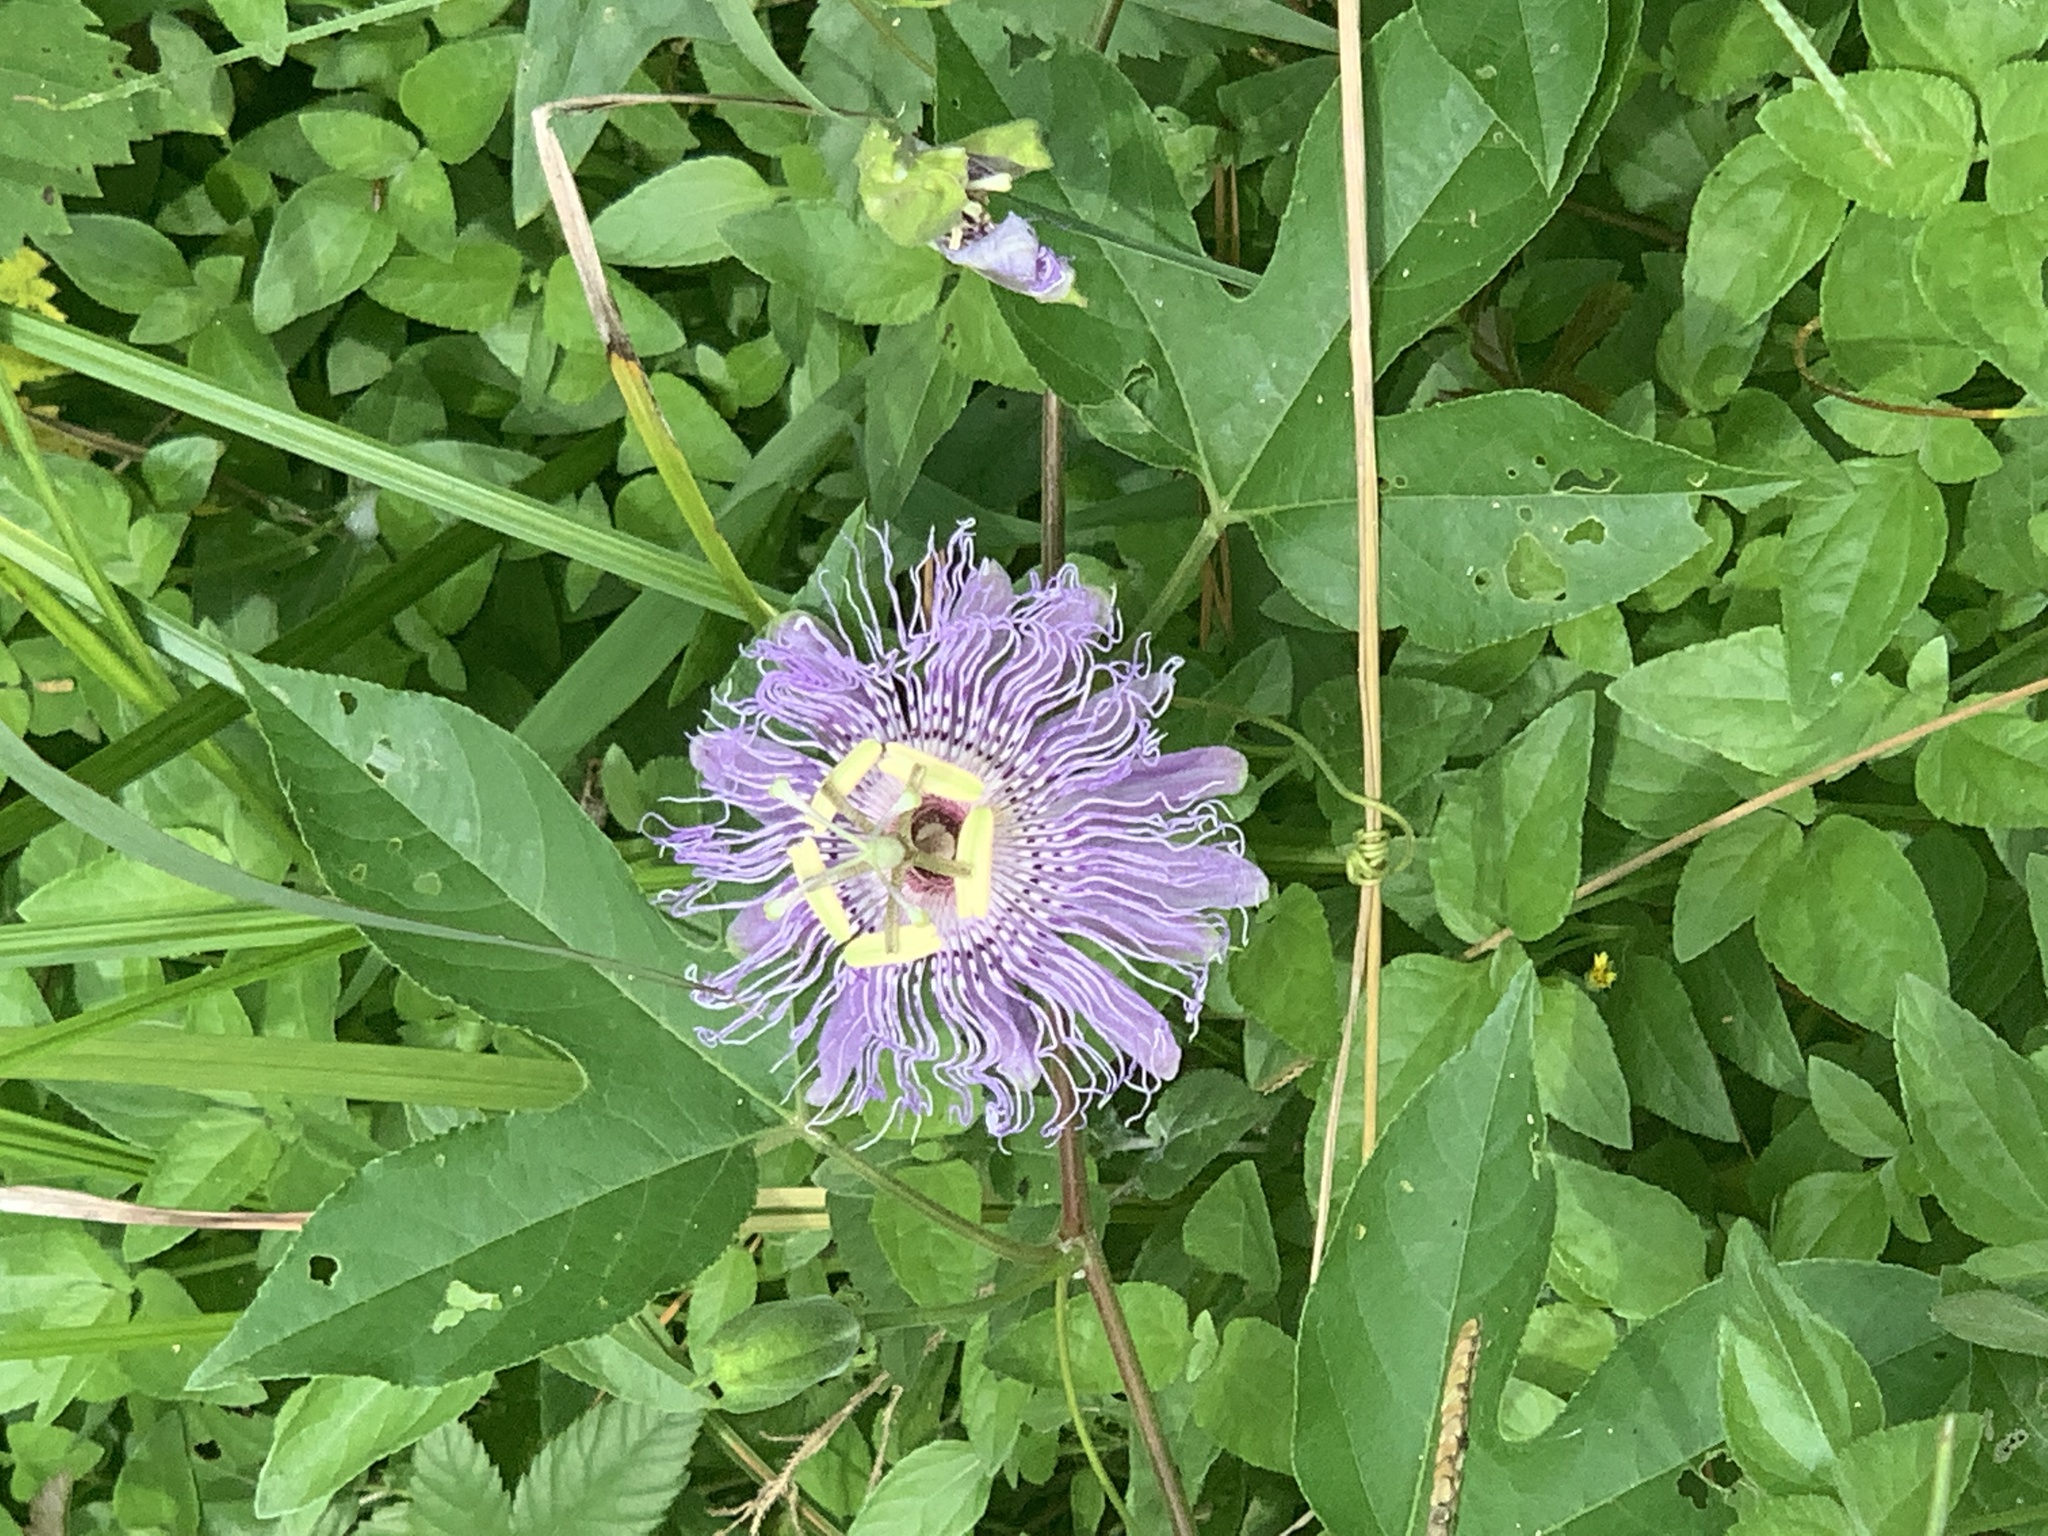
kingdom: Plantae
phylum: Tracheophyta
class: Magnoliopsida
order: Malpighiales
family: Passifloraceae
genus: Passiflora
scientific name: Passiflora incarnata
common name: Apricot-vine
